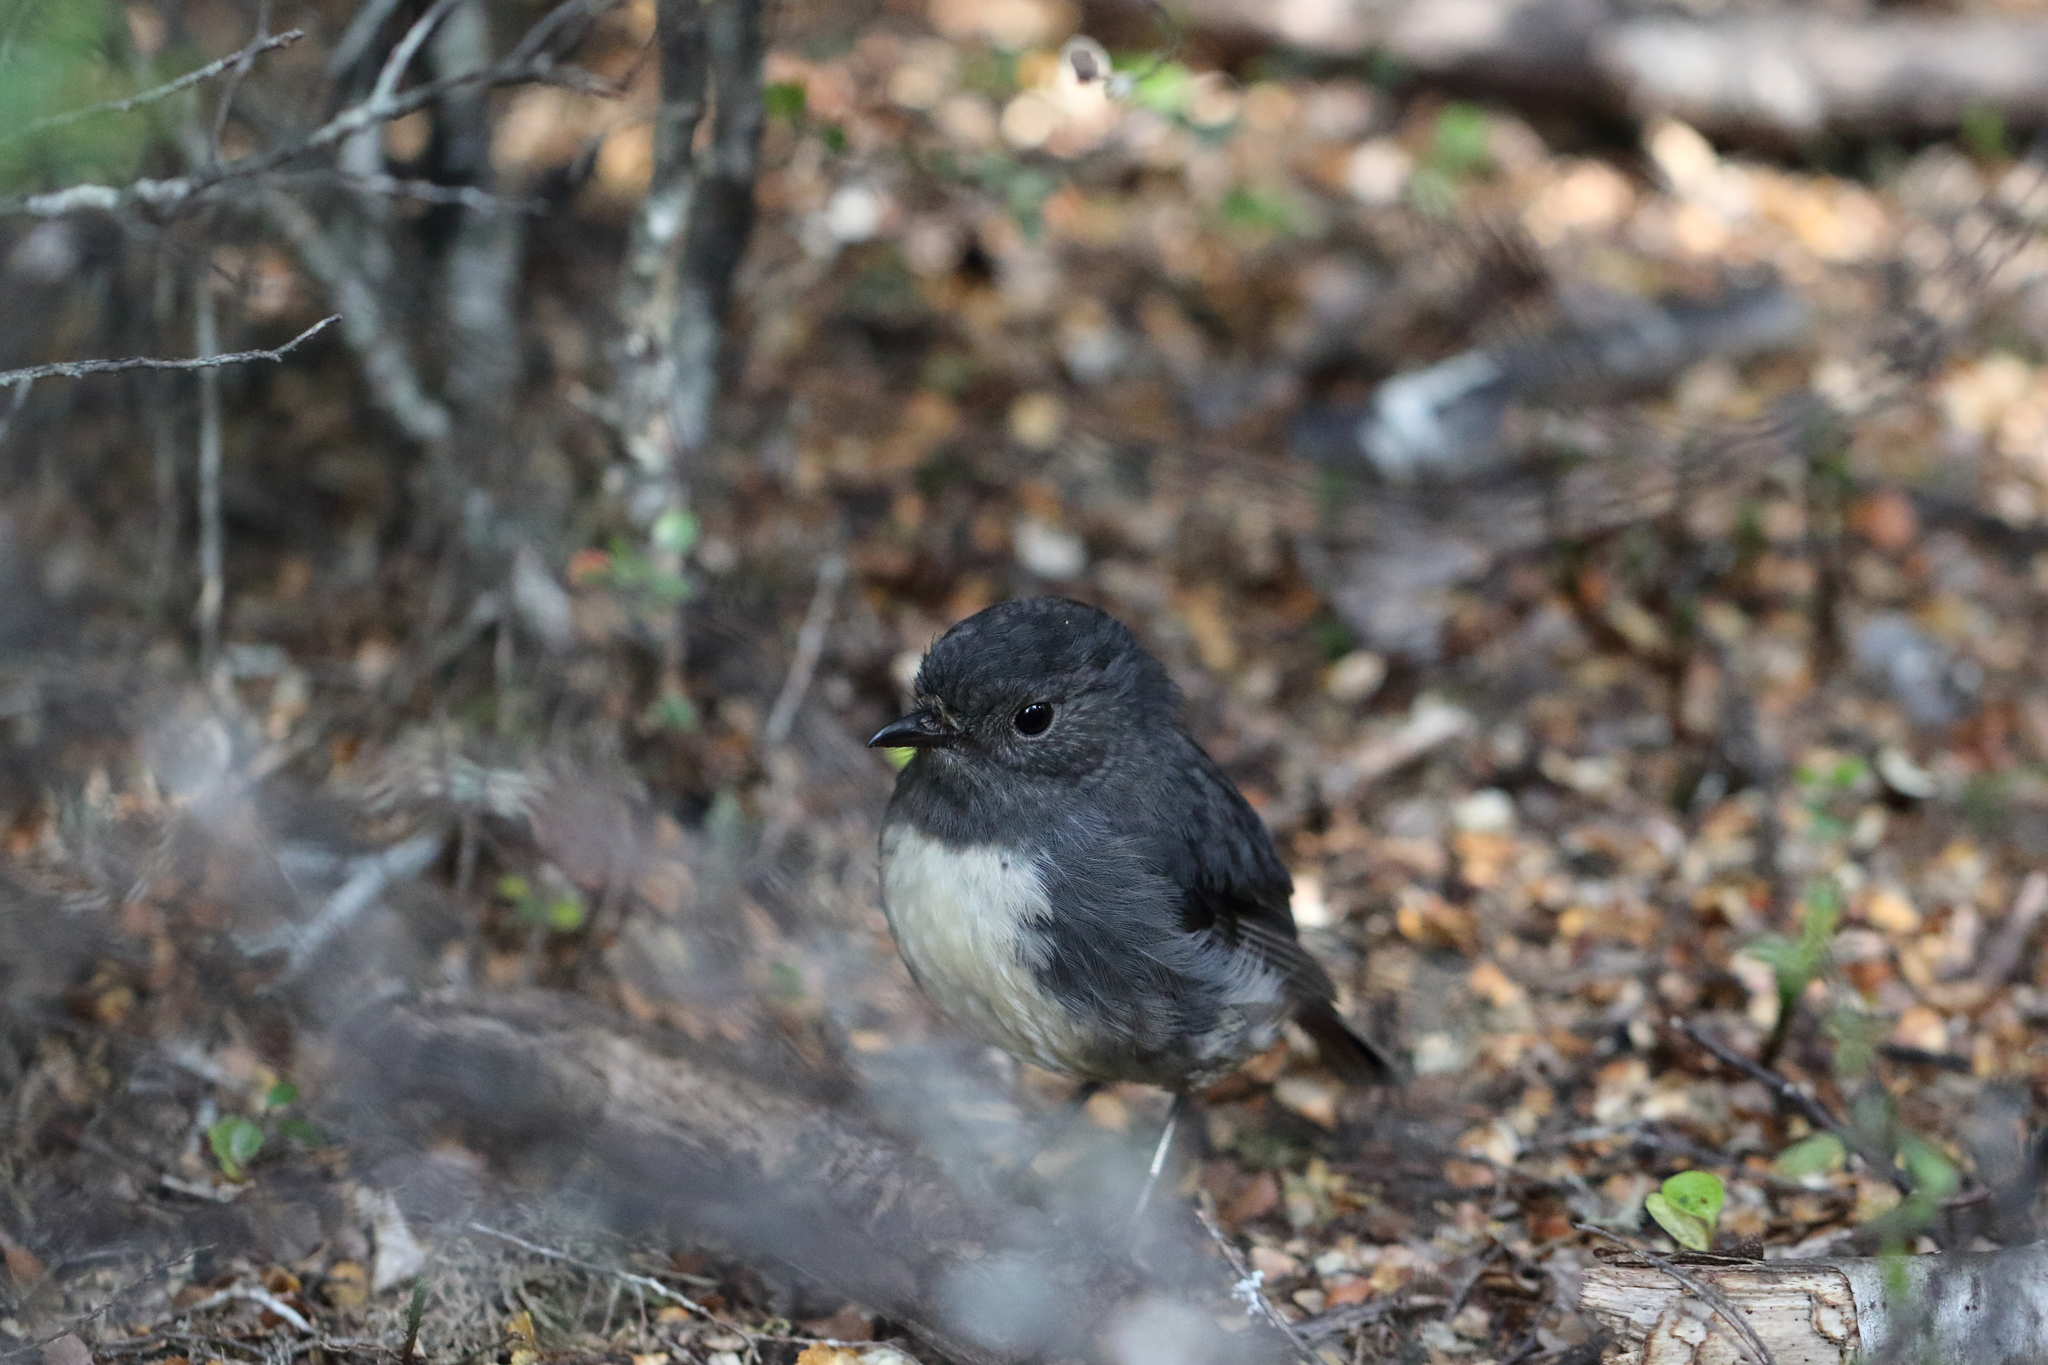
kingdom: Animalia
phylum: Chordata
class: Aves
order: Passeriformes
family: Petroicidae
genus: Petroica
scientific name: Petroica australis
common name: New zealand robin
